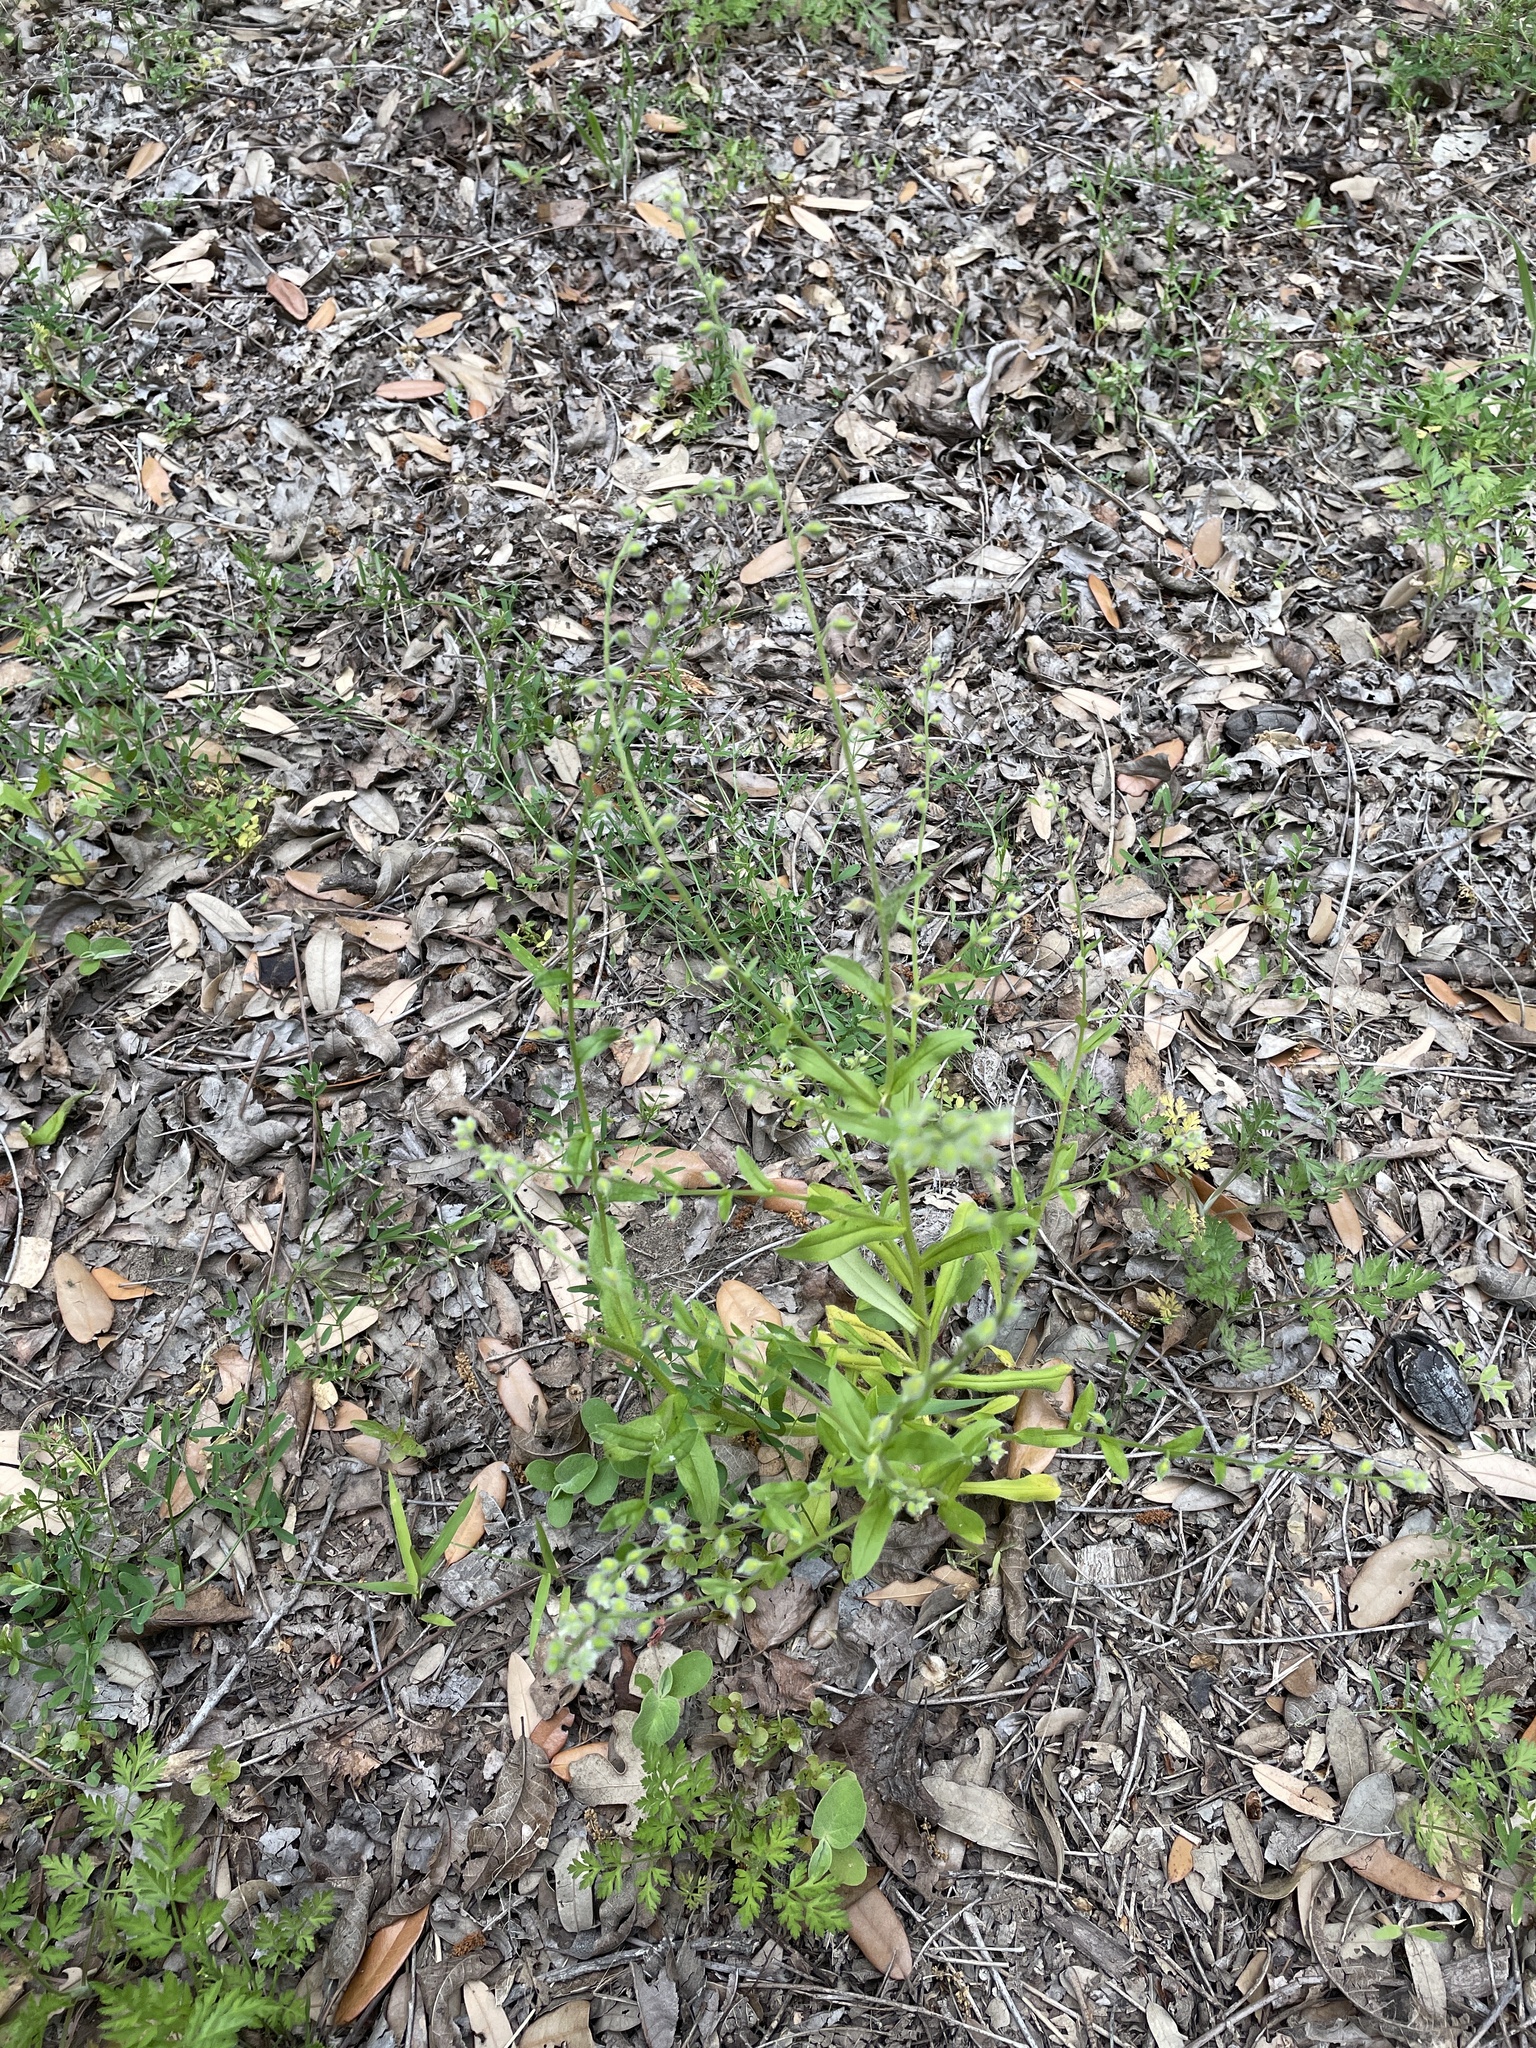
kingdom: Plantae
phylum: Tracheophyta
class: Magnoliopsida
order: Boraginales
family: Boraginaceae
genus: Myosotis
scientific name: Myosotis macrosperma
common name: Large-seed forget-me-not
